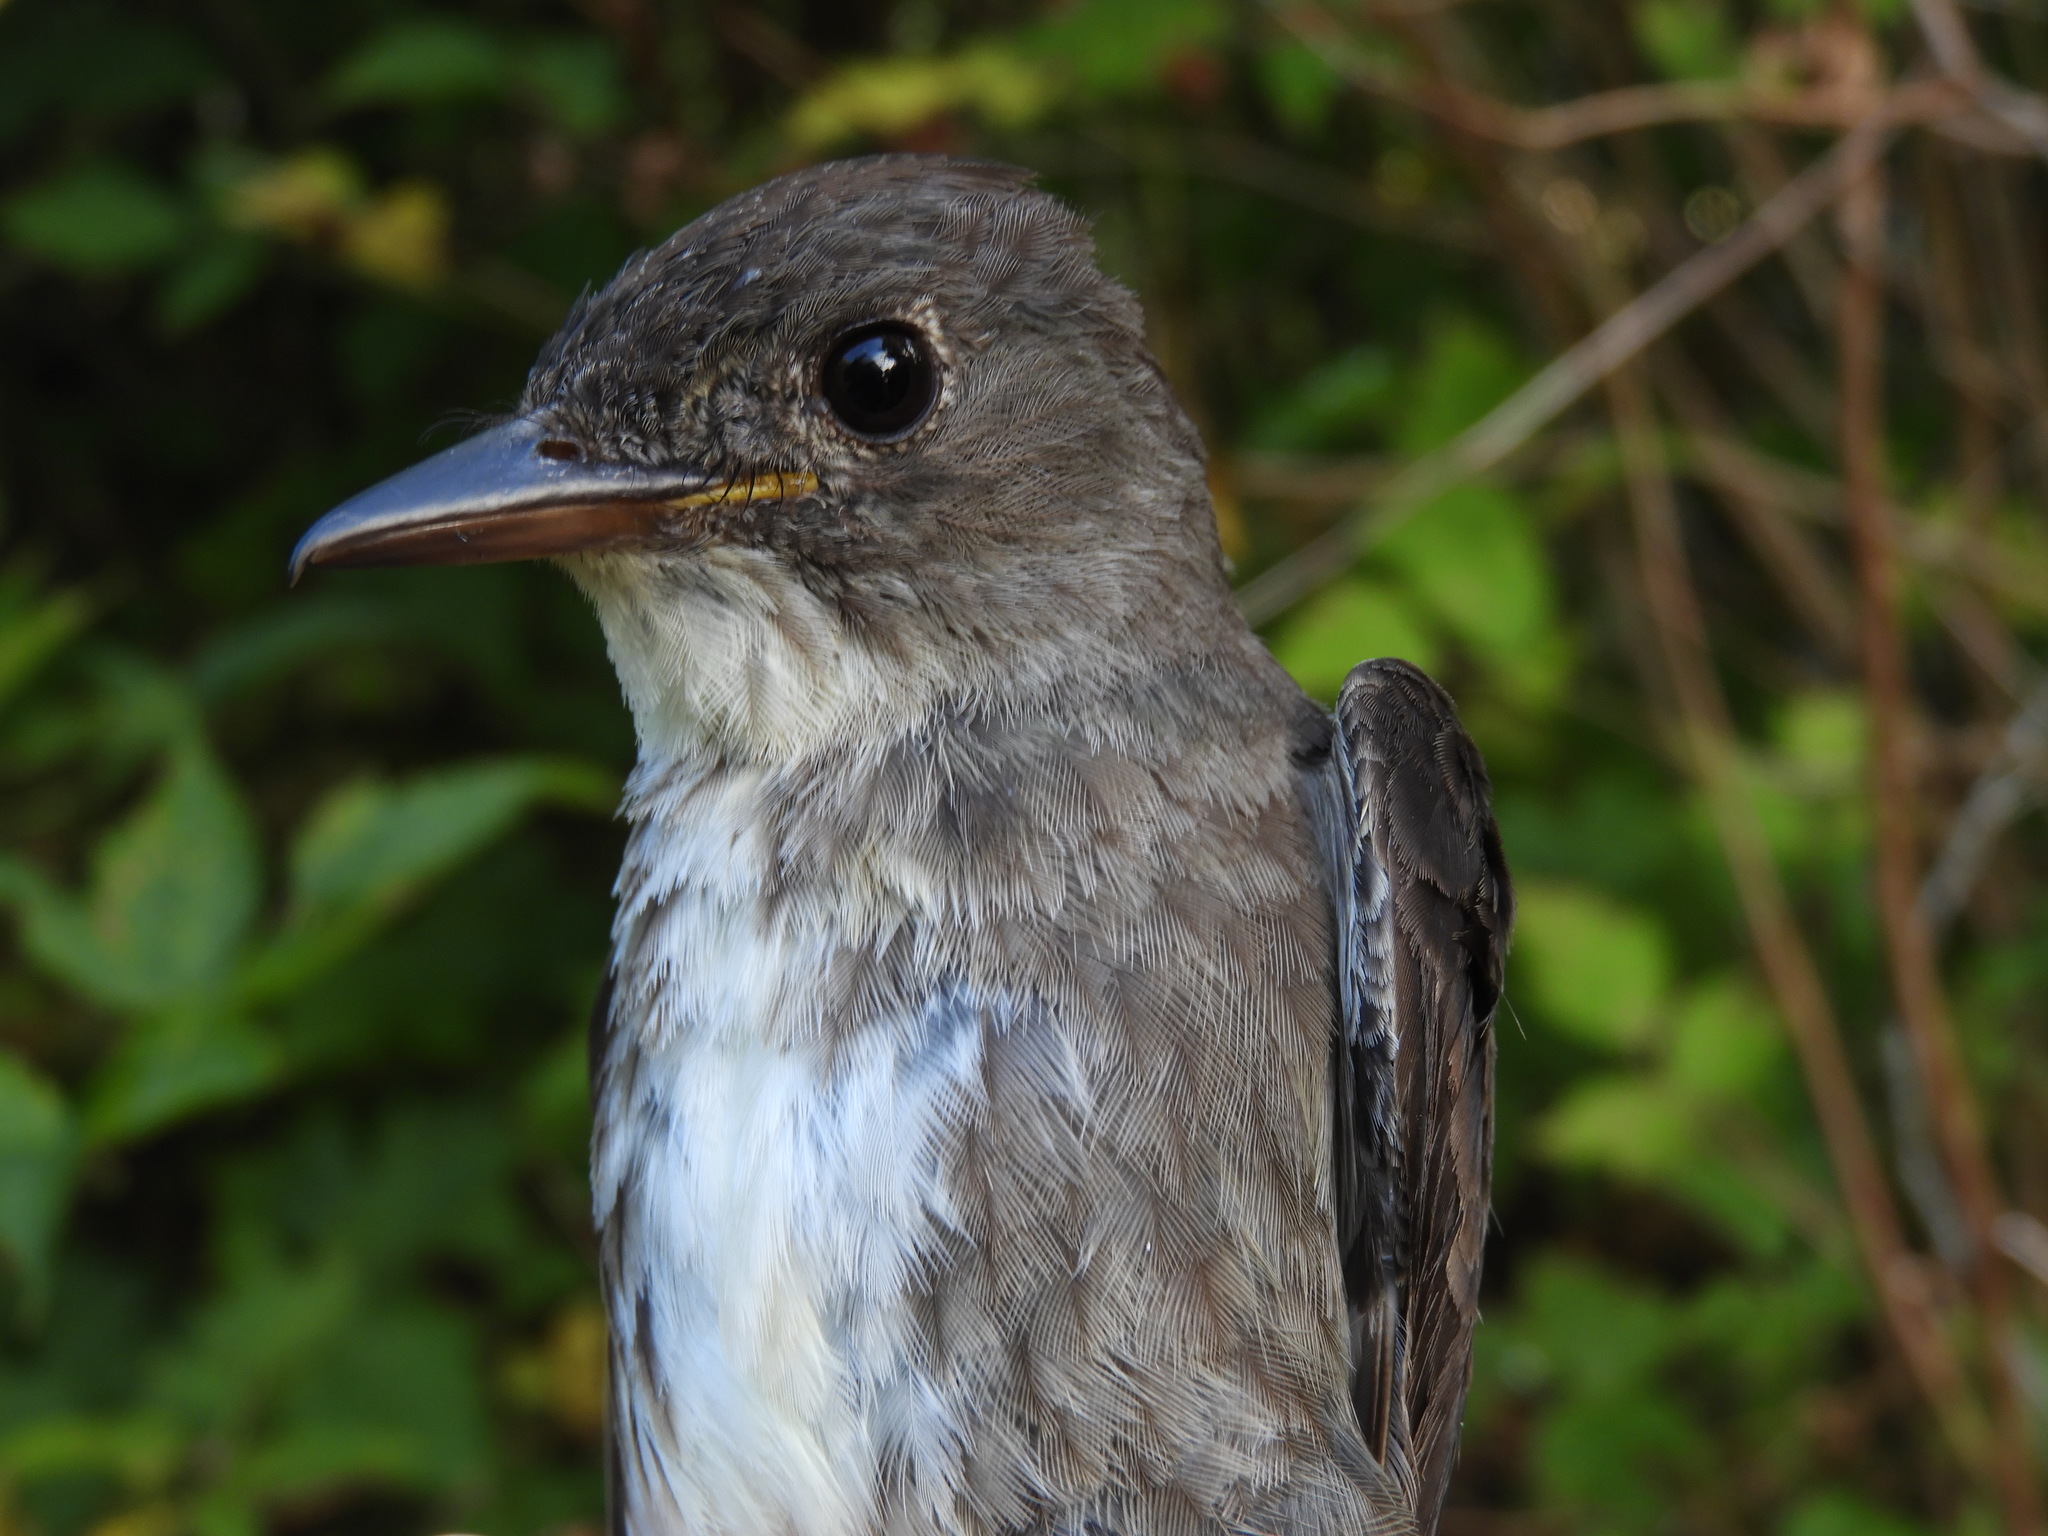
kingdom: Animalia
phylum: Chordata
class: Aves
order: Passeriformes
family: Tyrannidae
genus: Contopus
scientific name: Contopus cooperi
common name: Olive-sided flycatcher
